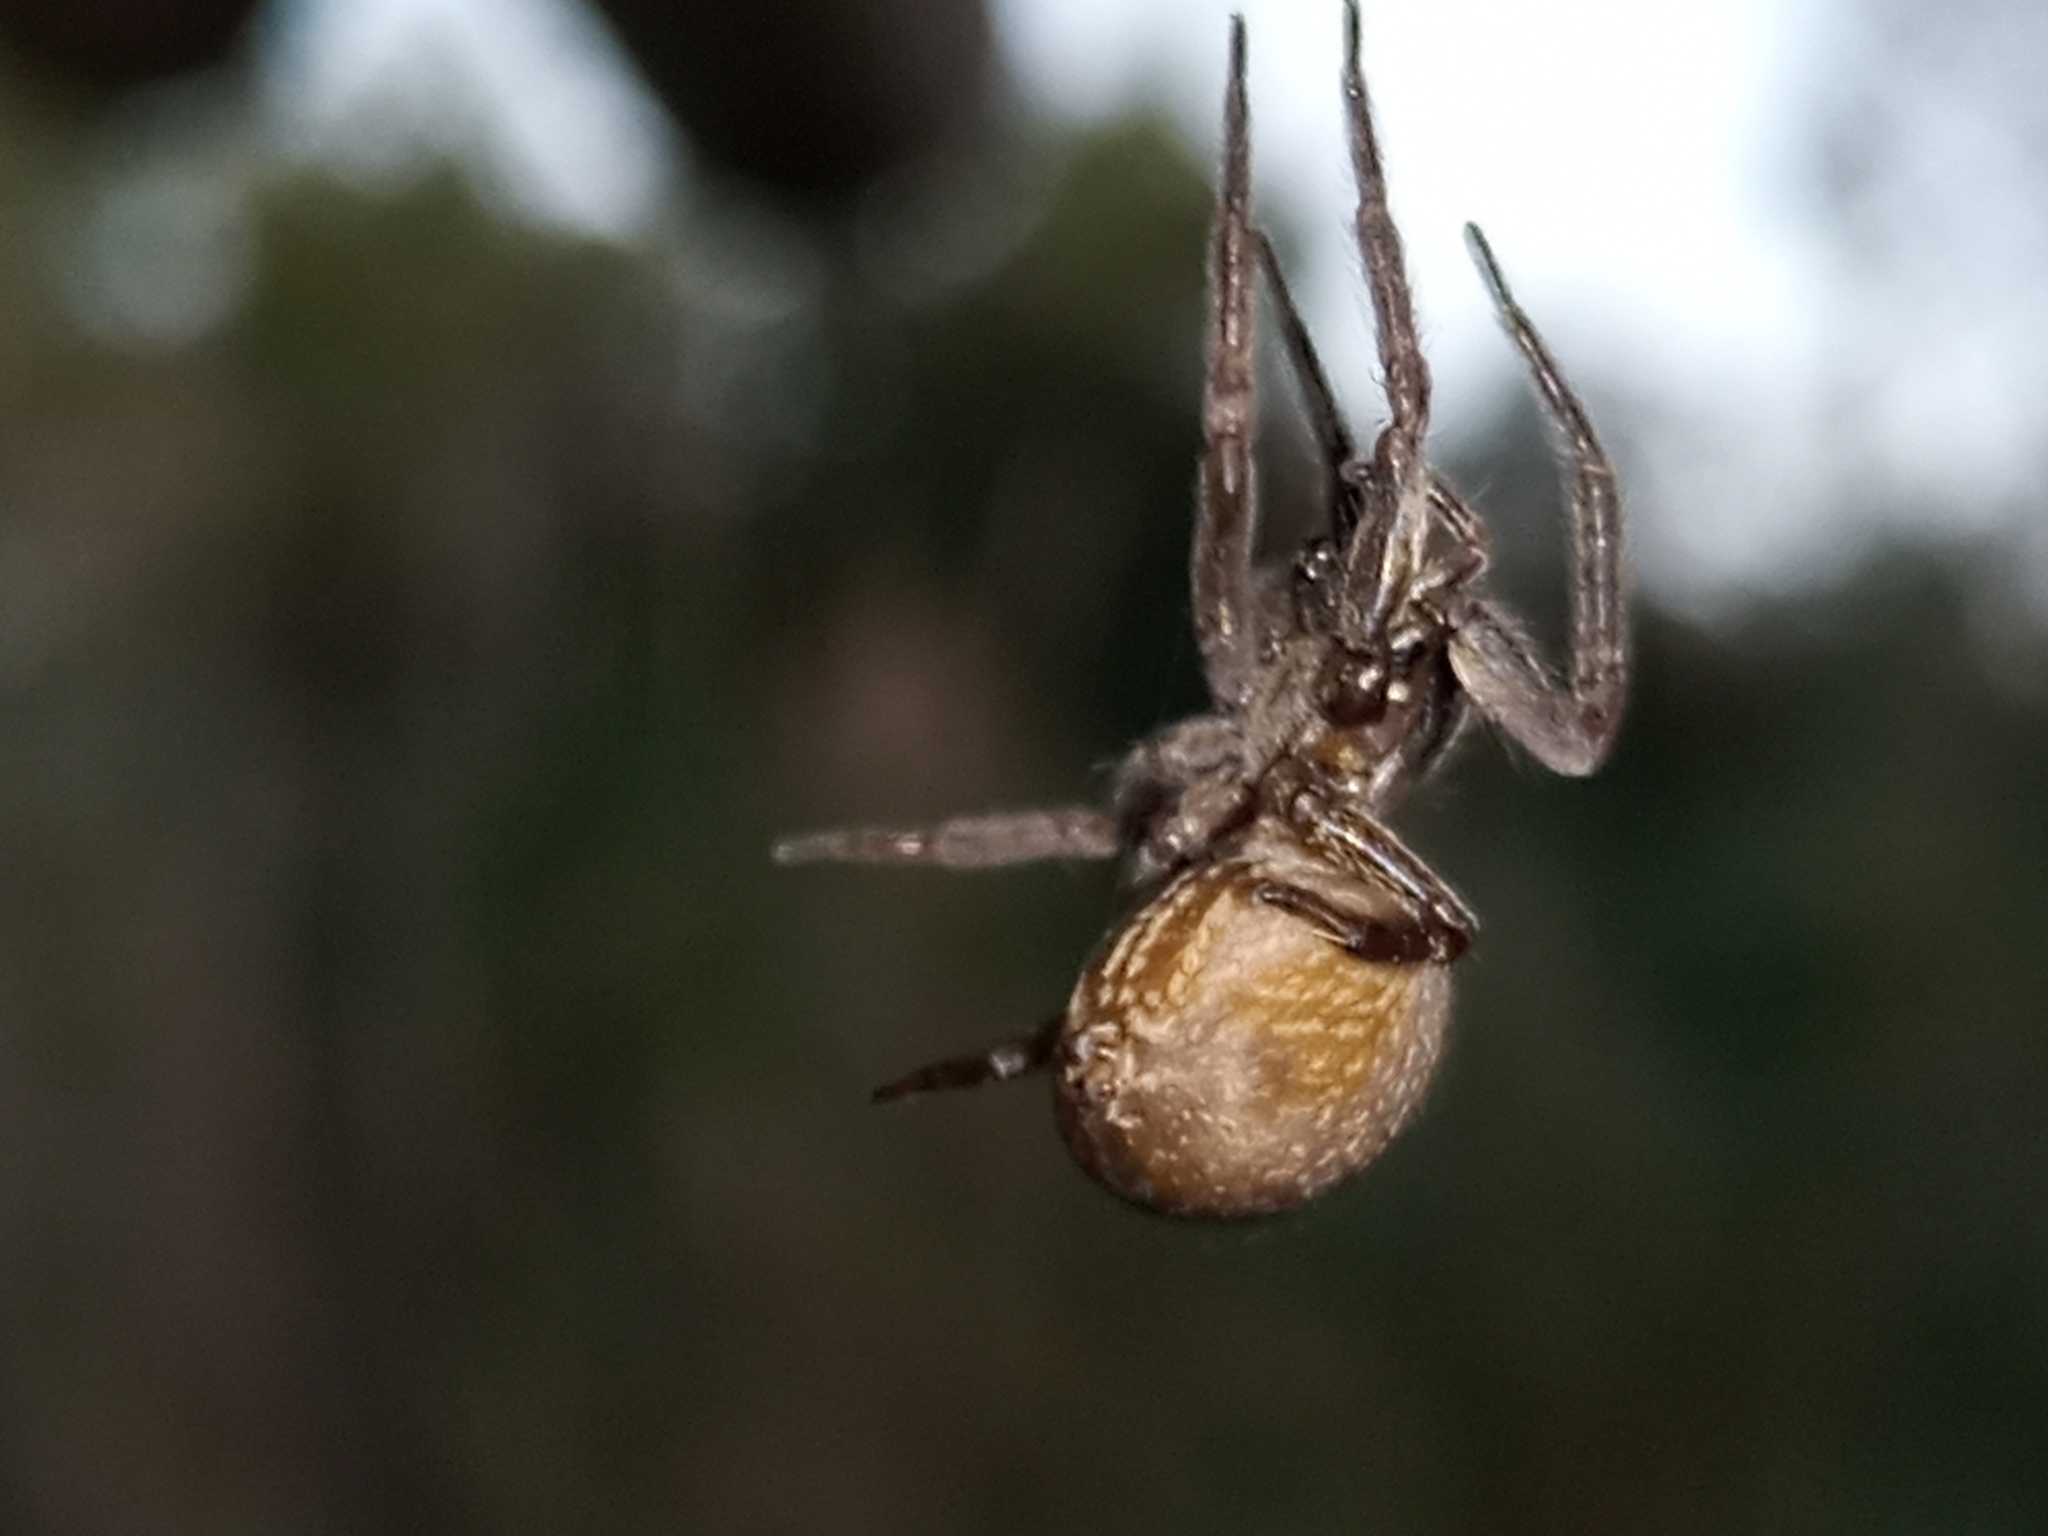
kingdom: Animalia
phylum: Arthropoda
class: Arachnida
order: Araneae
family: Desidae
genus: Badumna
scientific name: Badumna longinqua
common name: Gray house spider
